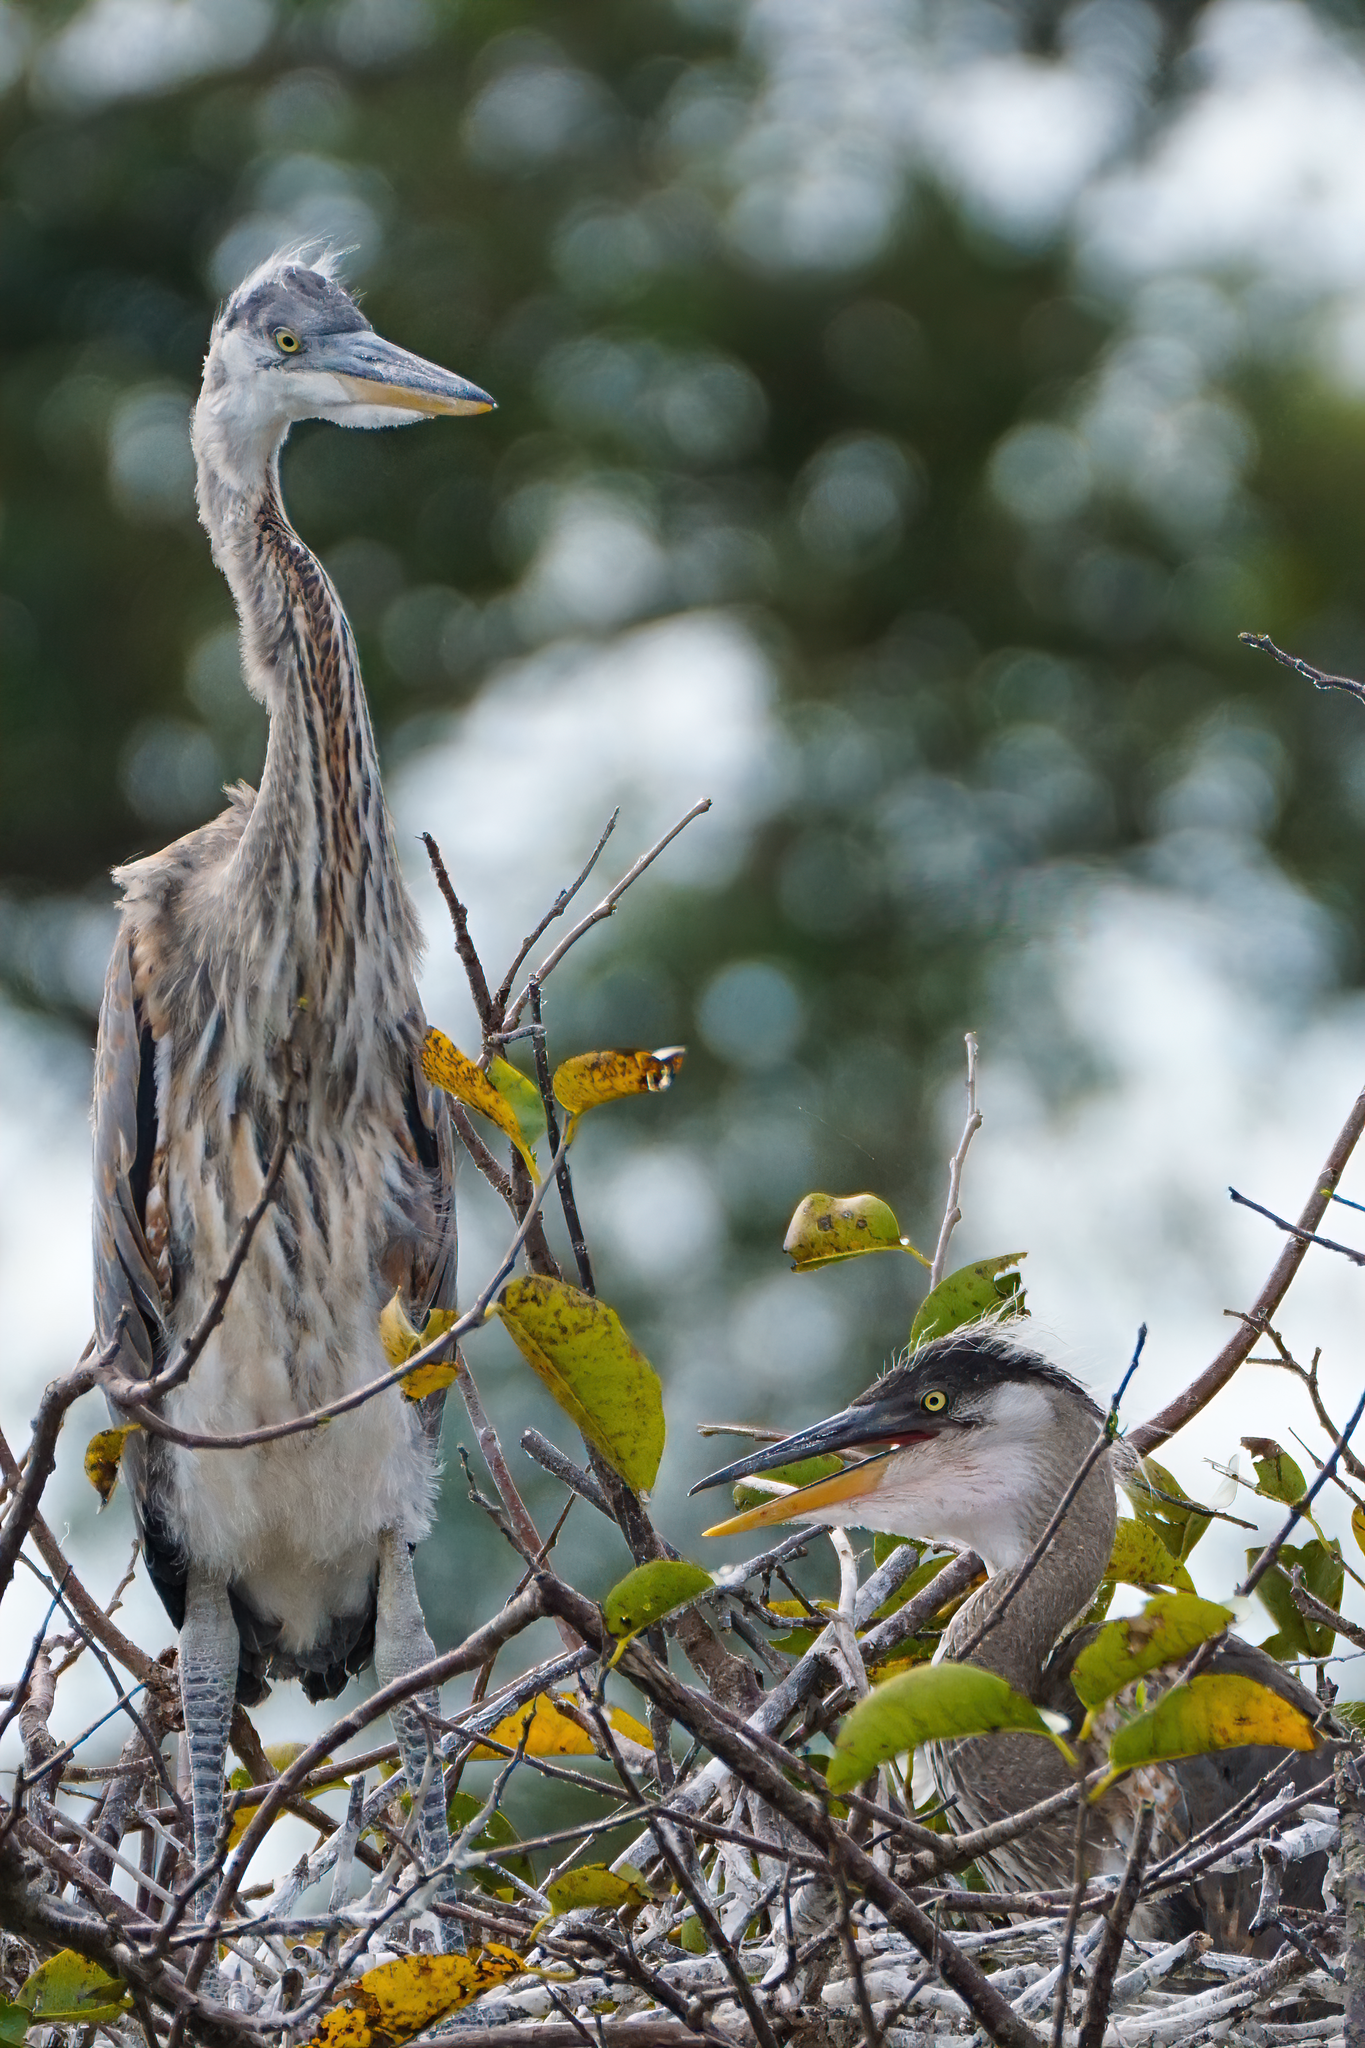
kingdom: Animalia
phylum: Chordata
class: Aves
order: Pelecaniformes
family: Ardeidae
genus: Ardea
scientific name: Ardea herodias
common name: Great blue heron
